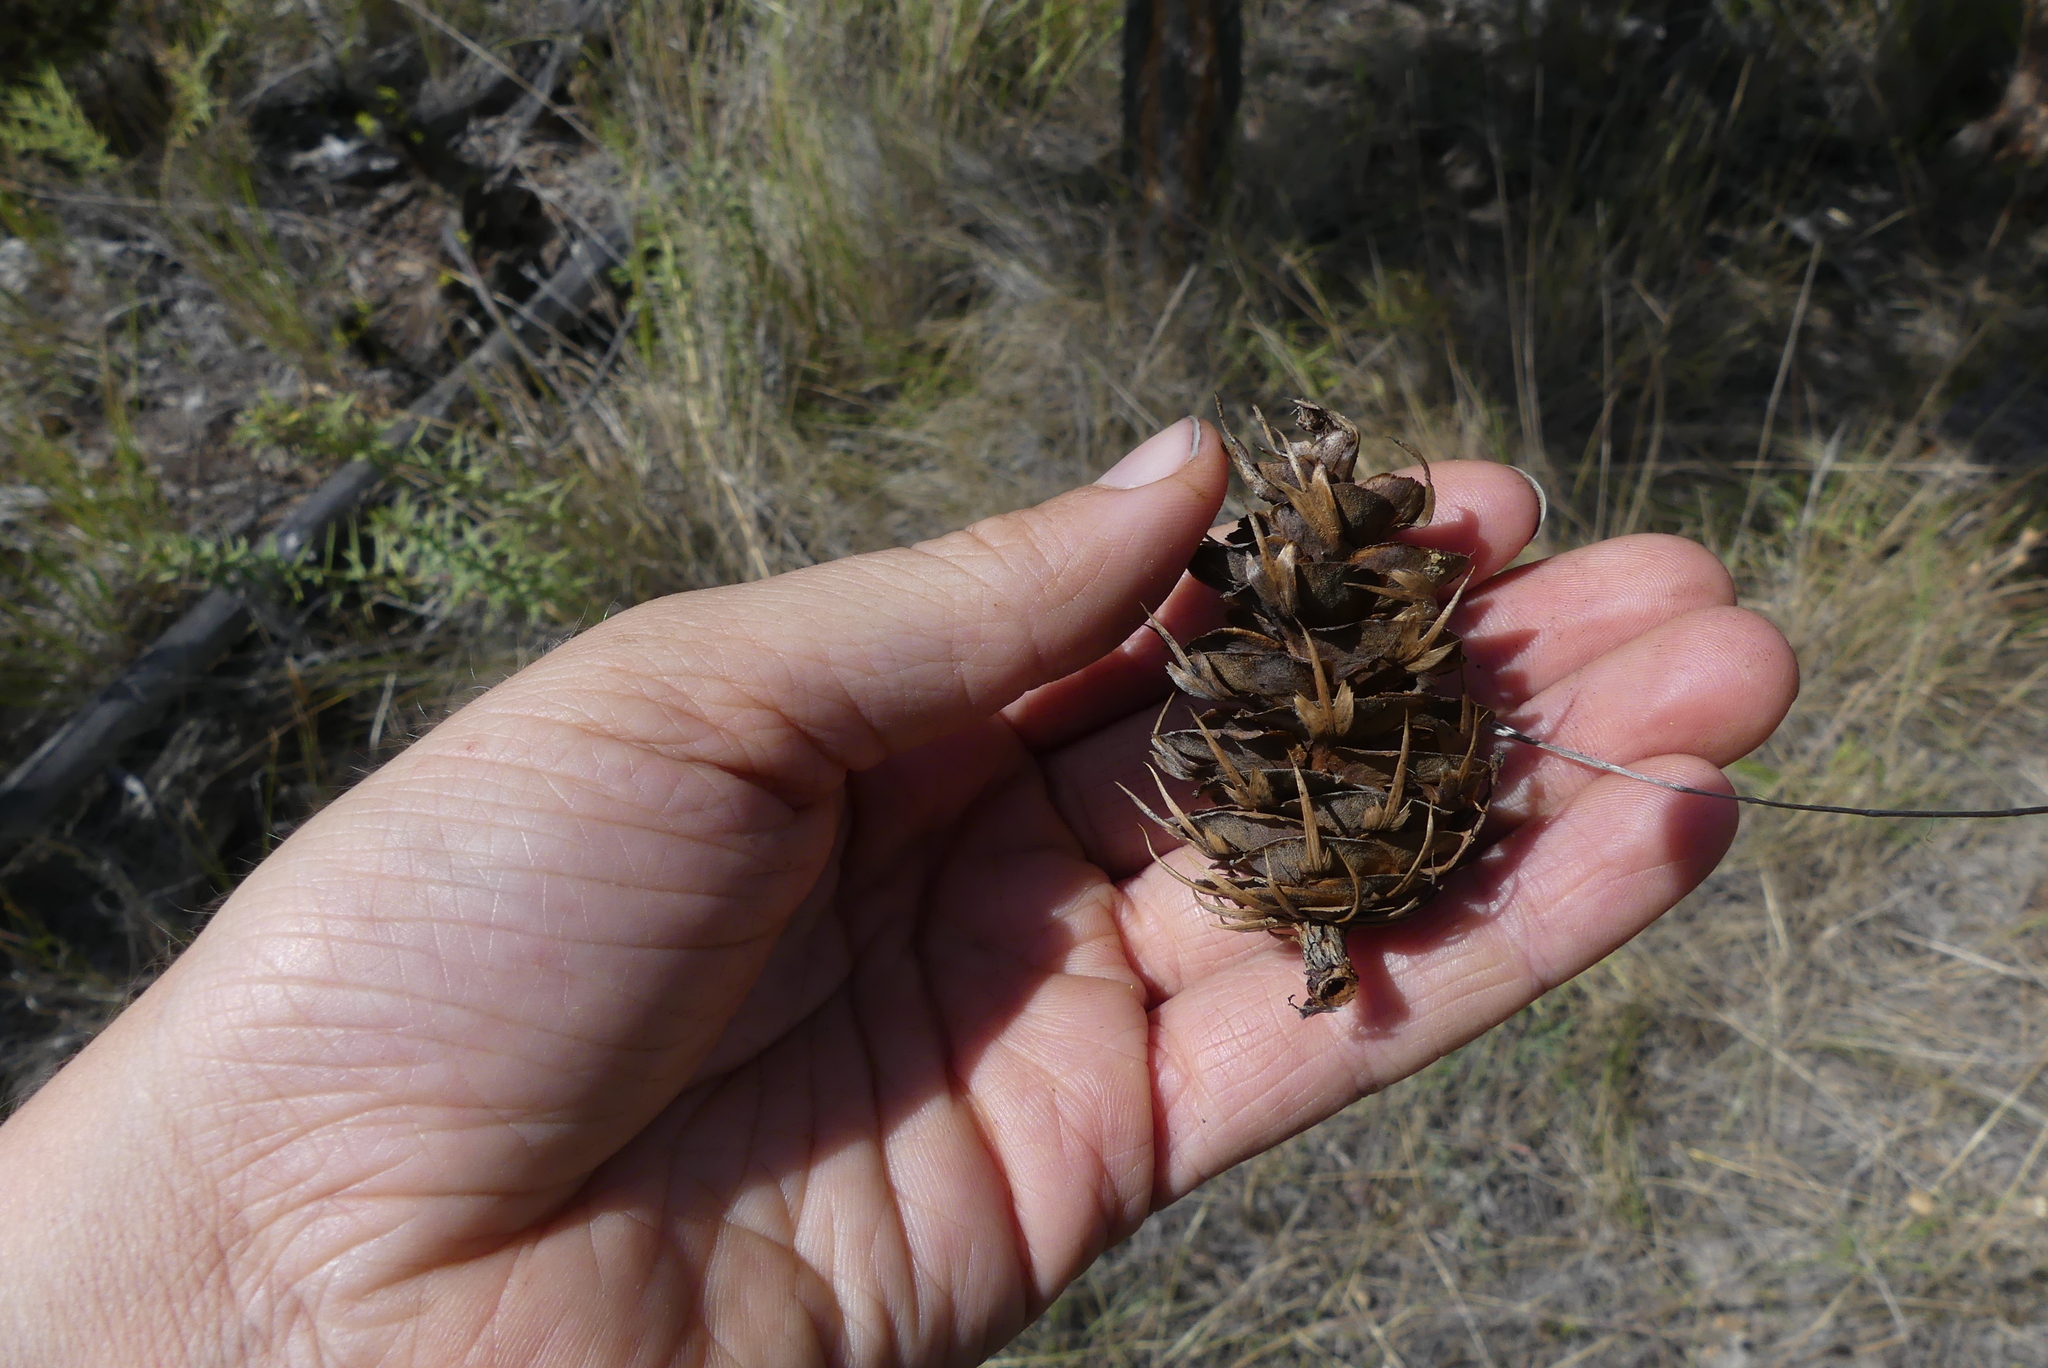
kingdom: Plantae
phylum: Tracheophyta
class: Pinopsida
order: Pinales
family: Pinaceae
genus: Pseudotsuga
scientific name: Pseudotsuga menziesii
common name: Douglas fir
